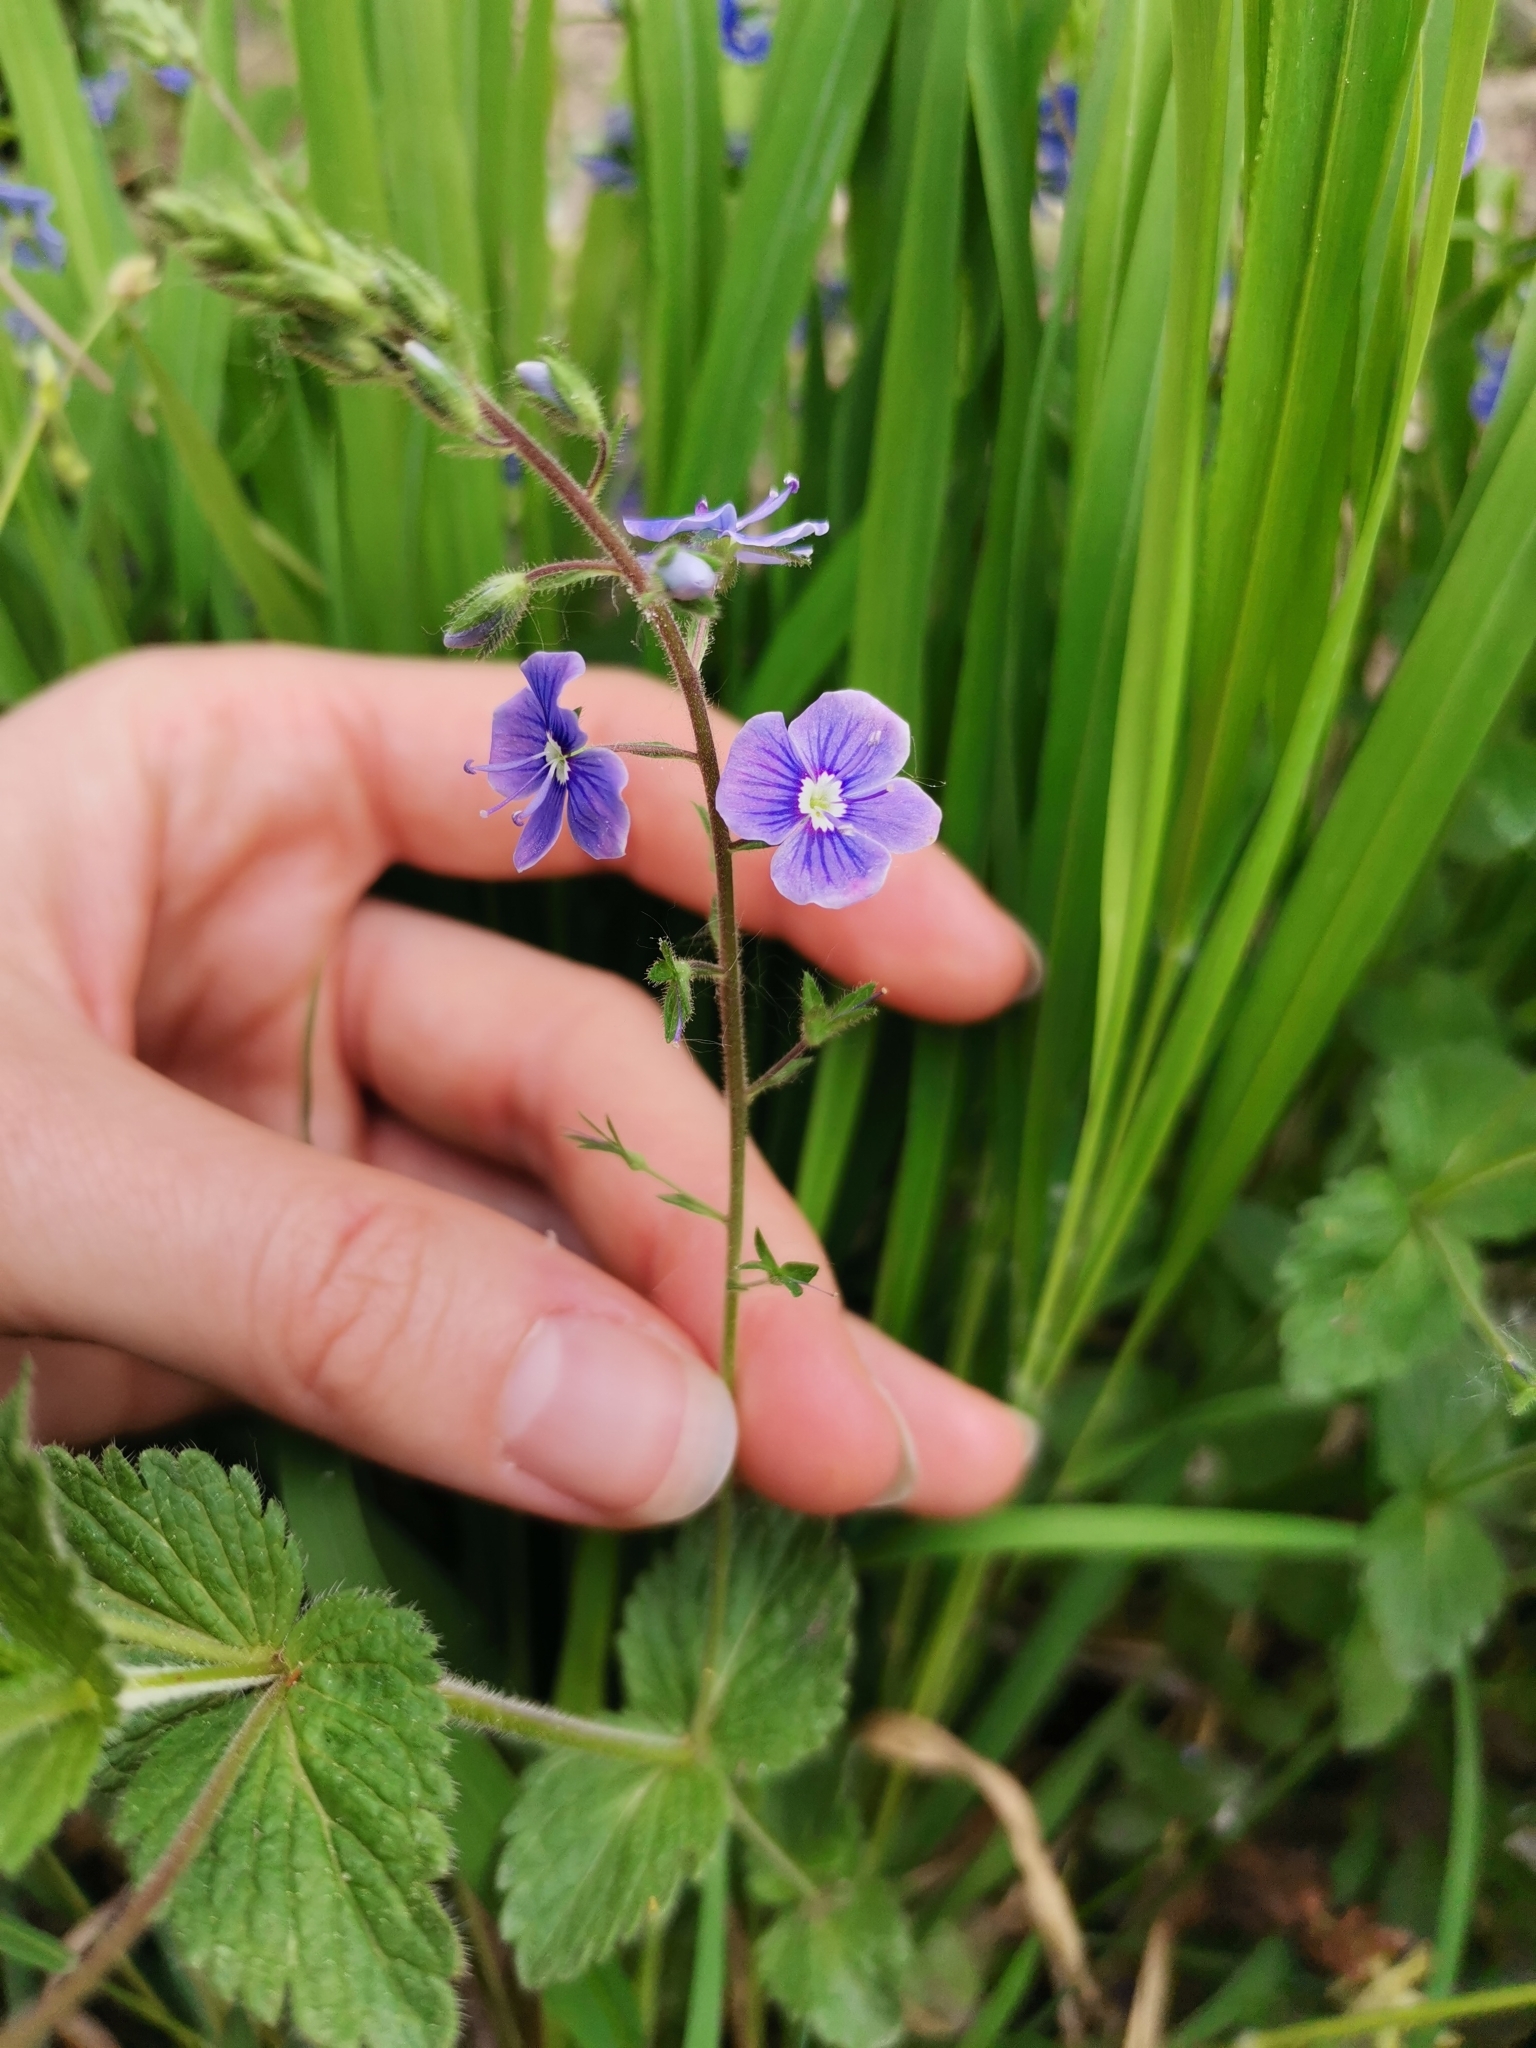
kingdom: Plantae
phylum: Tracheophyta
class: Magnoliopsida
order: Lamiales
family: Plantaginaceae
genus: Veronica
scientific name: Veronica chamaedrys
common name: Germander speedwell
